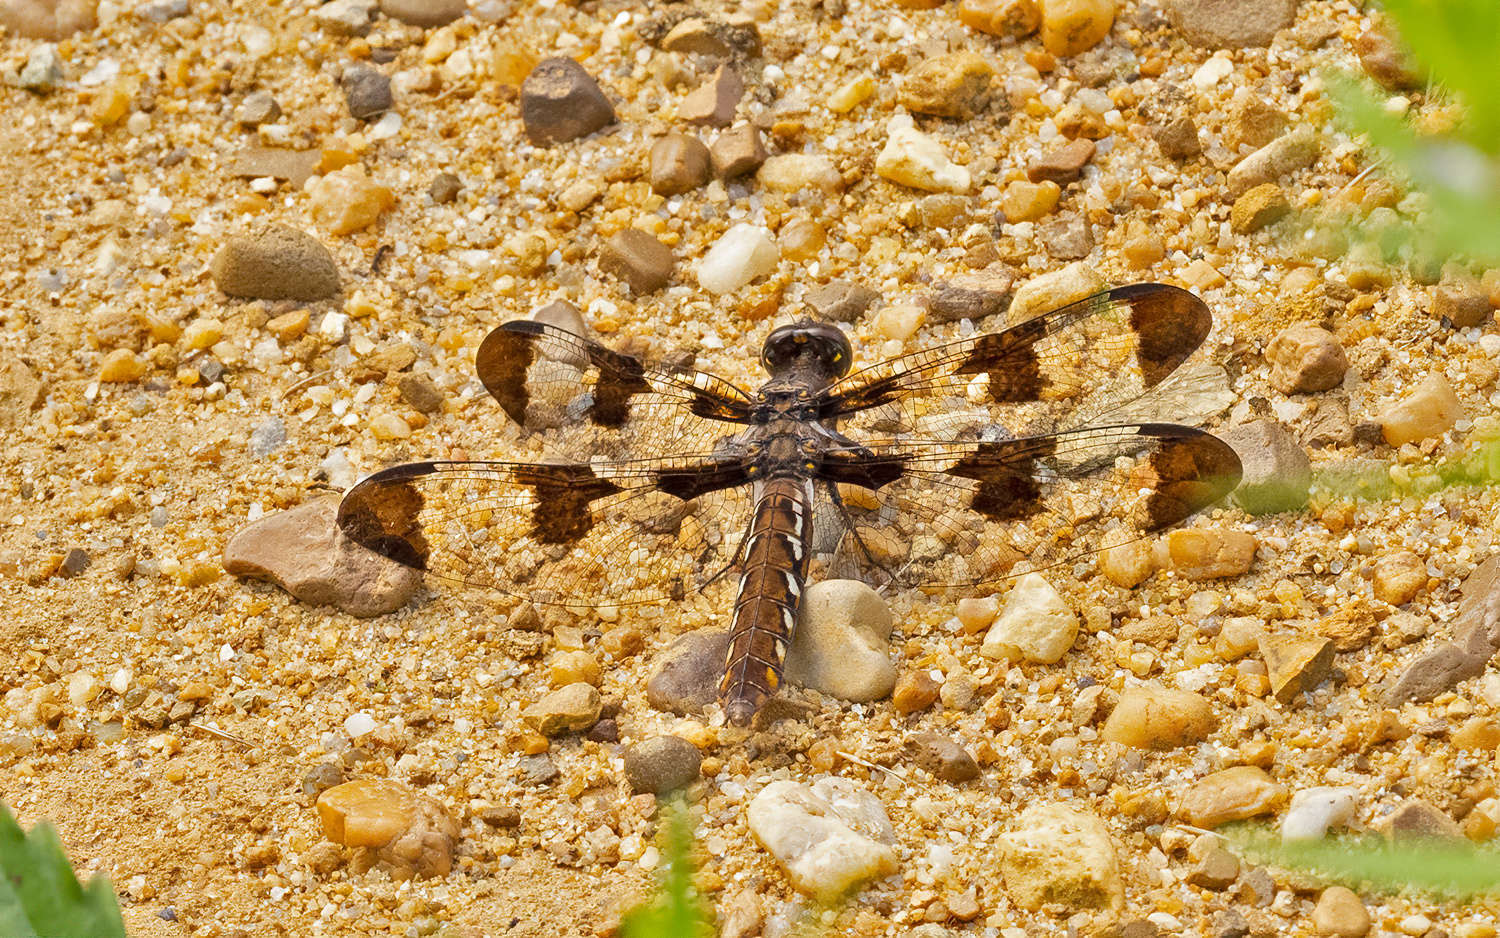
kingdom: Animalia
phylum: Arthropoda
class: Insecta
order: Odonata
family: Libellulidae
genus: Plathemis
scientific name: Plathemis lydia
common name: Common whitetail
